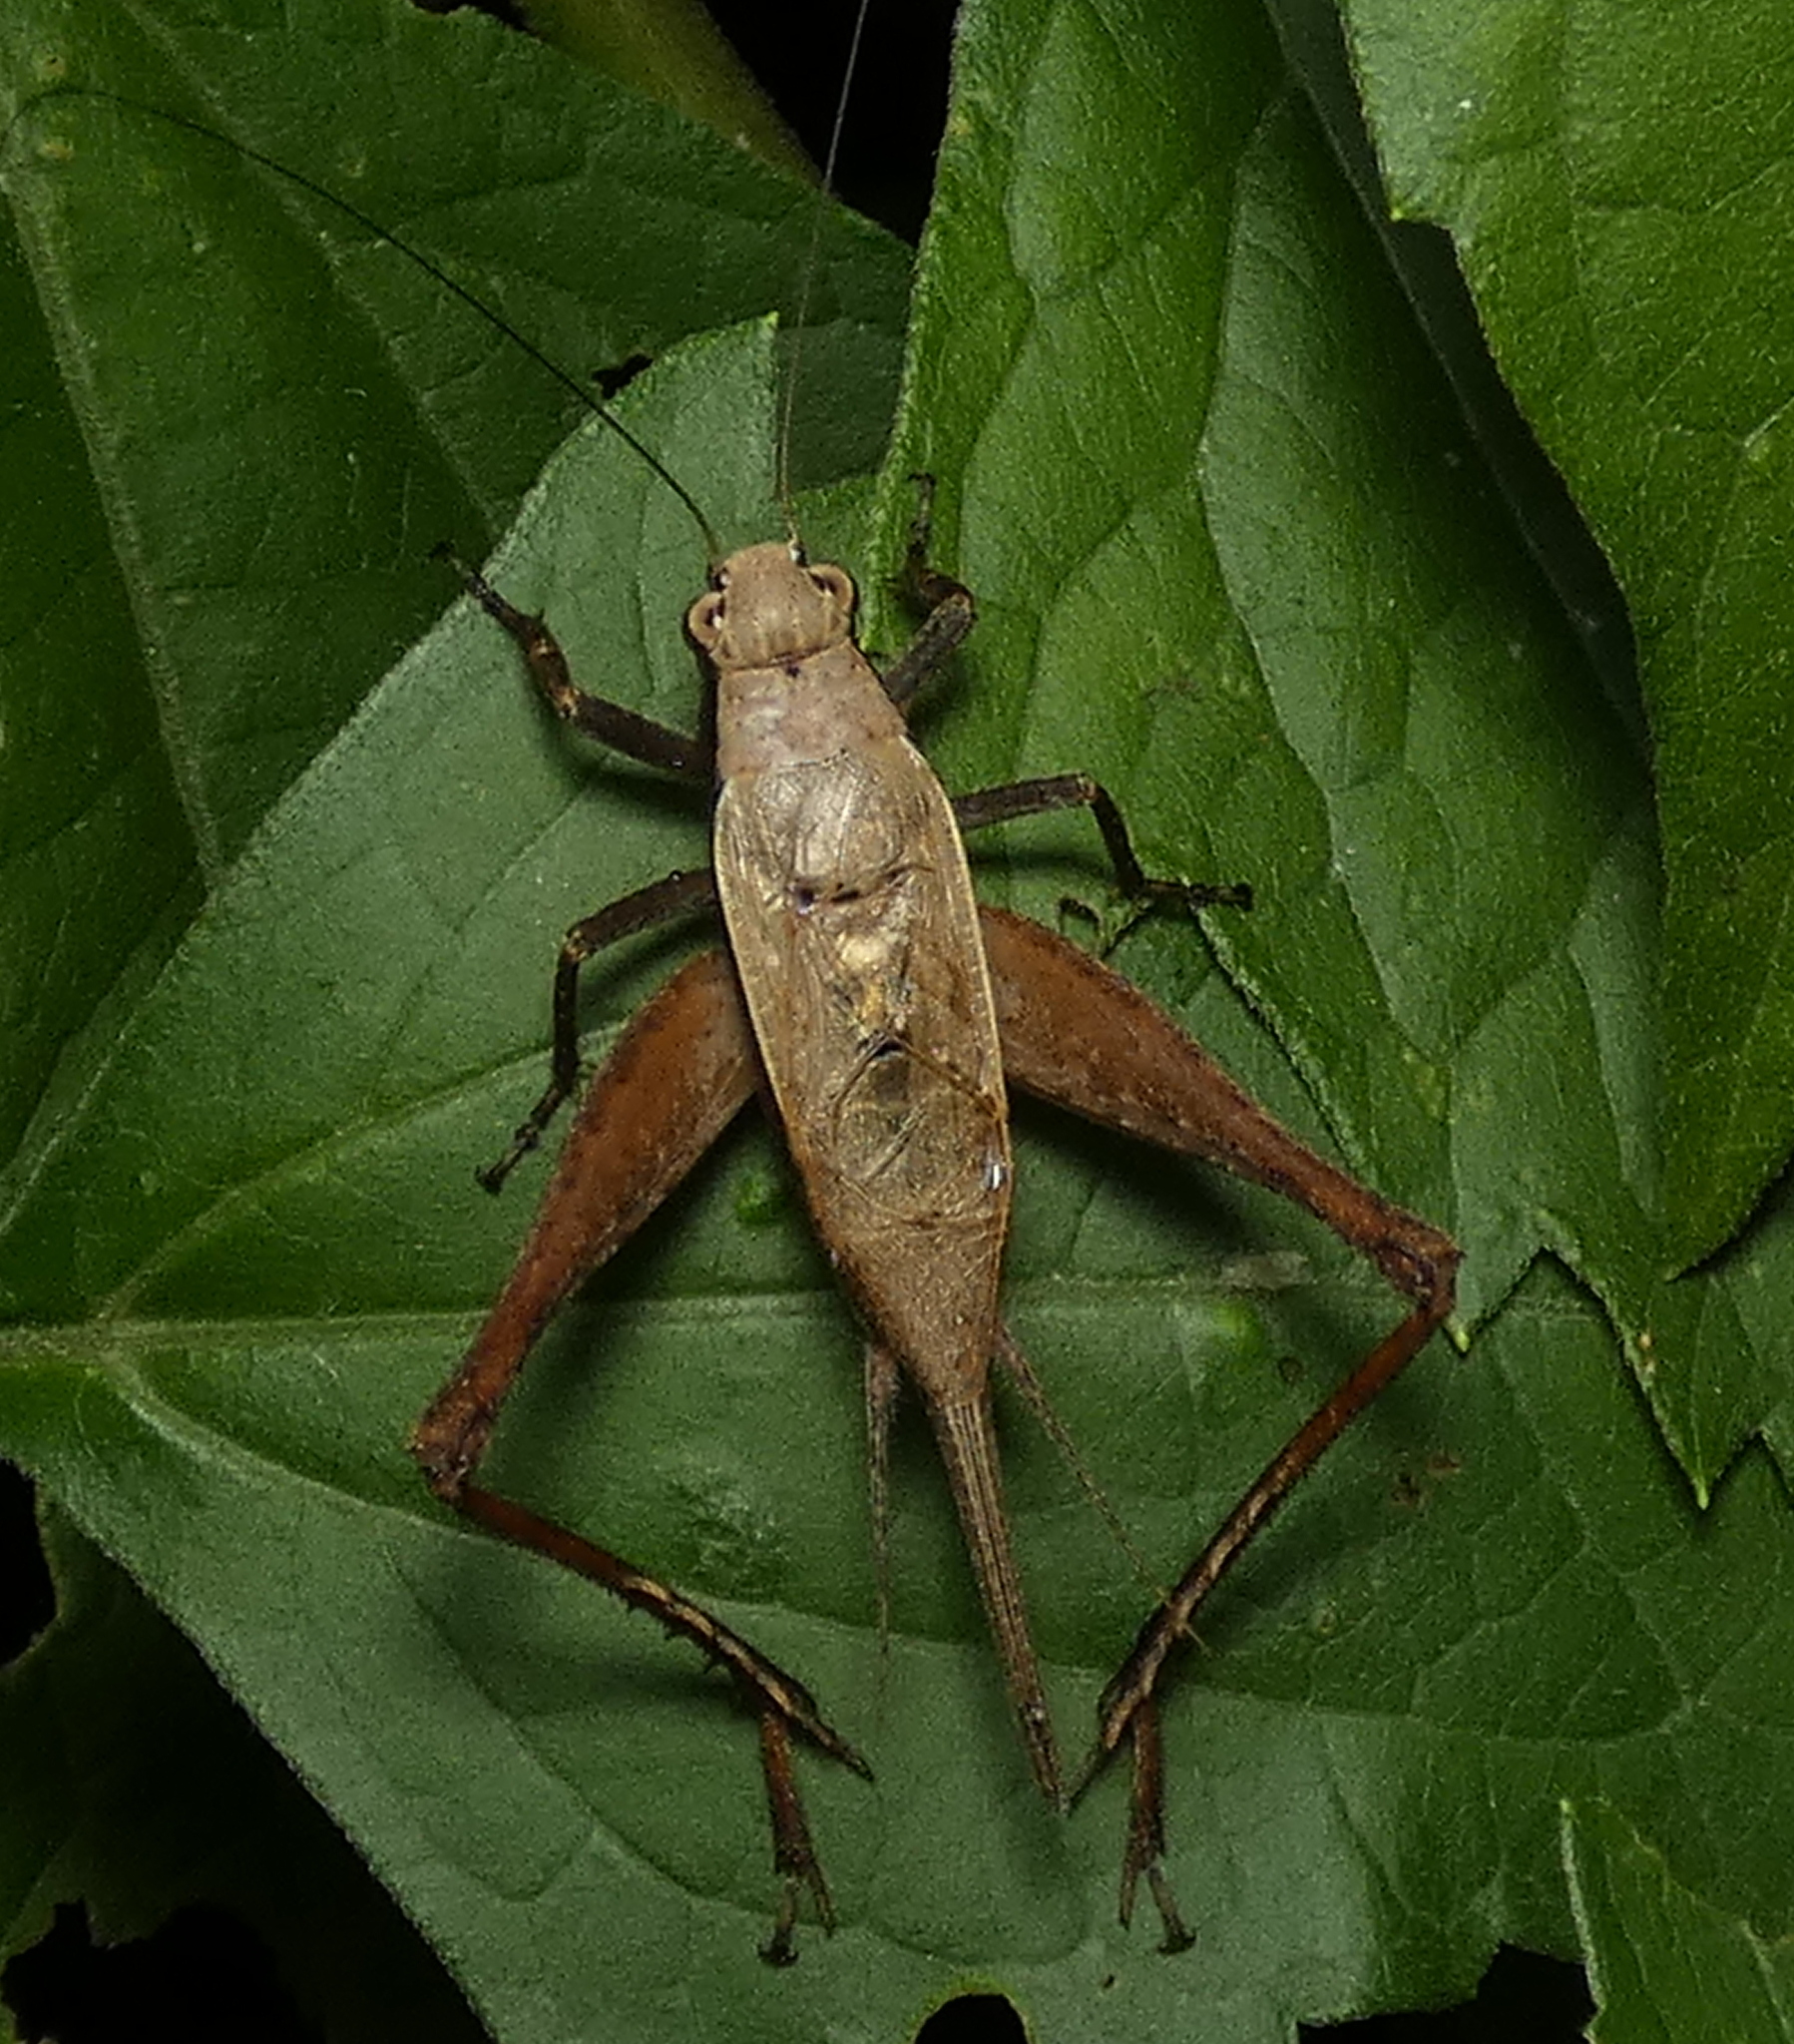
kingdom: Animalia
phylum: Arthropoda
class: Insecta
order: Orthoptera
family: Gryllidae
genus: Eneoptera
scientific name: Eneoptera surinamensis
